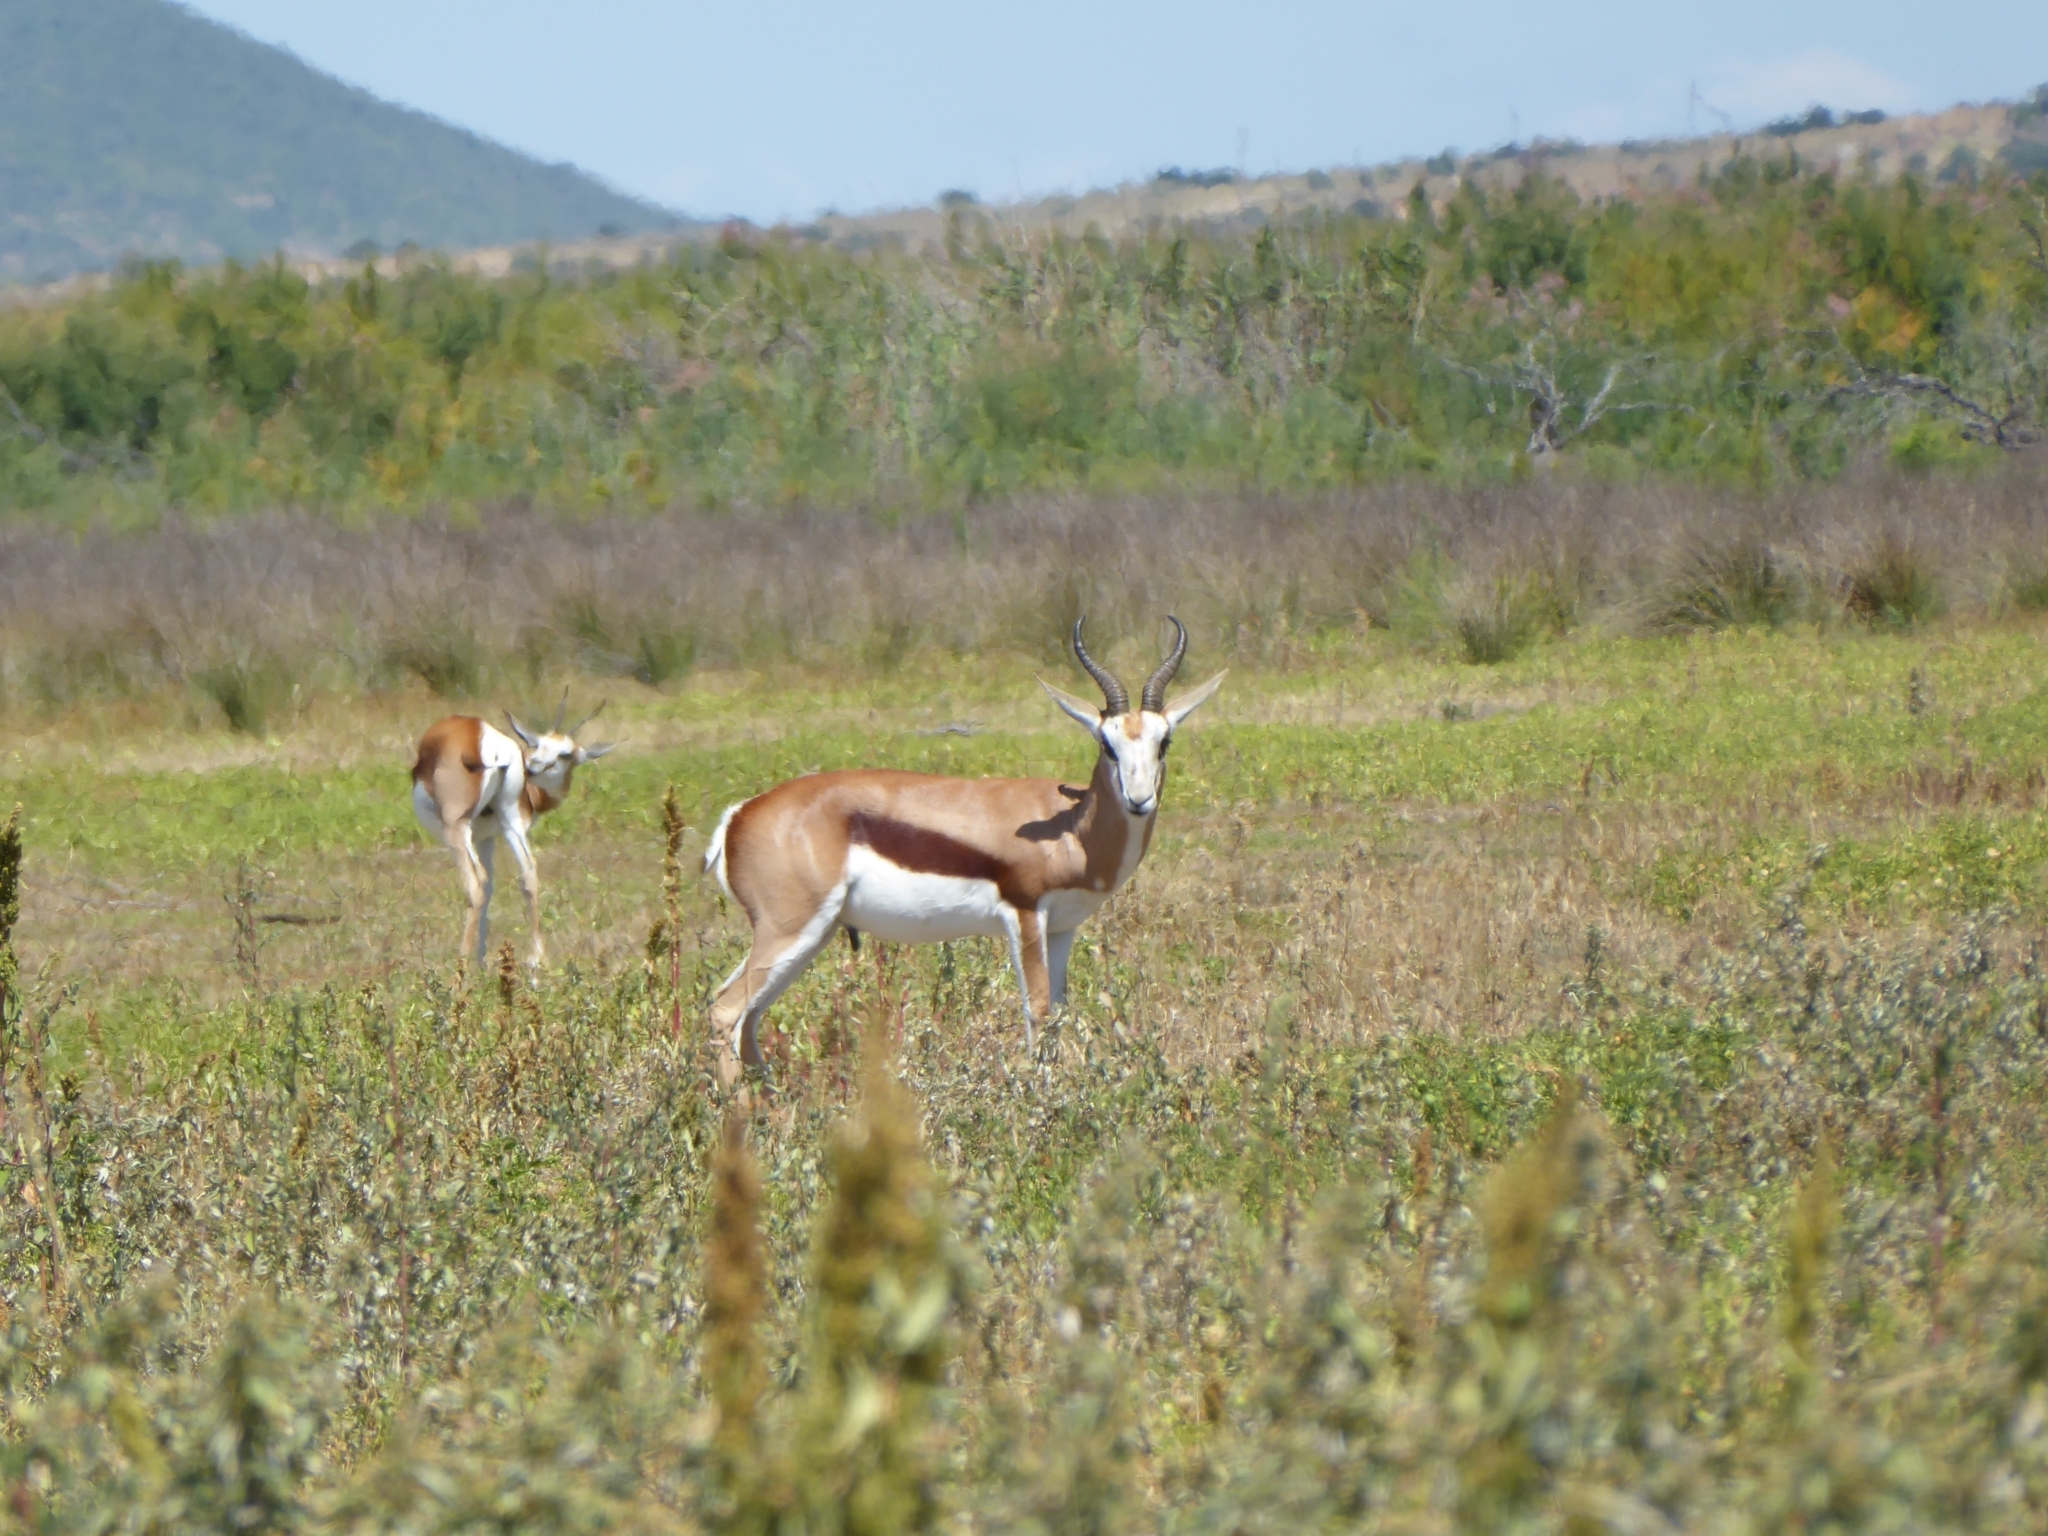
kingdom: Animalia
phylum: Chordata
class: Mammalia
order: Artiodactyla
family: Bovidae
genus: Antidorcas
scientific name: Antidorcas marsupialis
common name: Springbok
